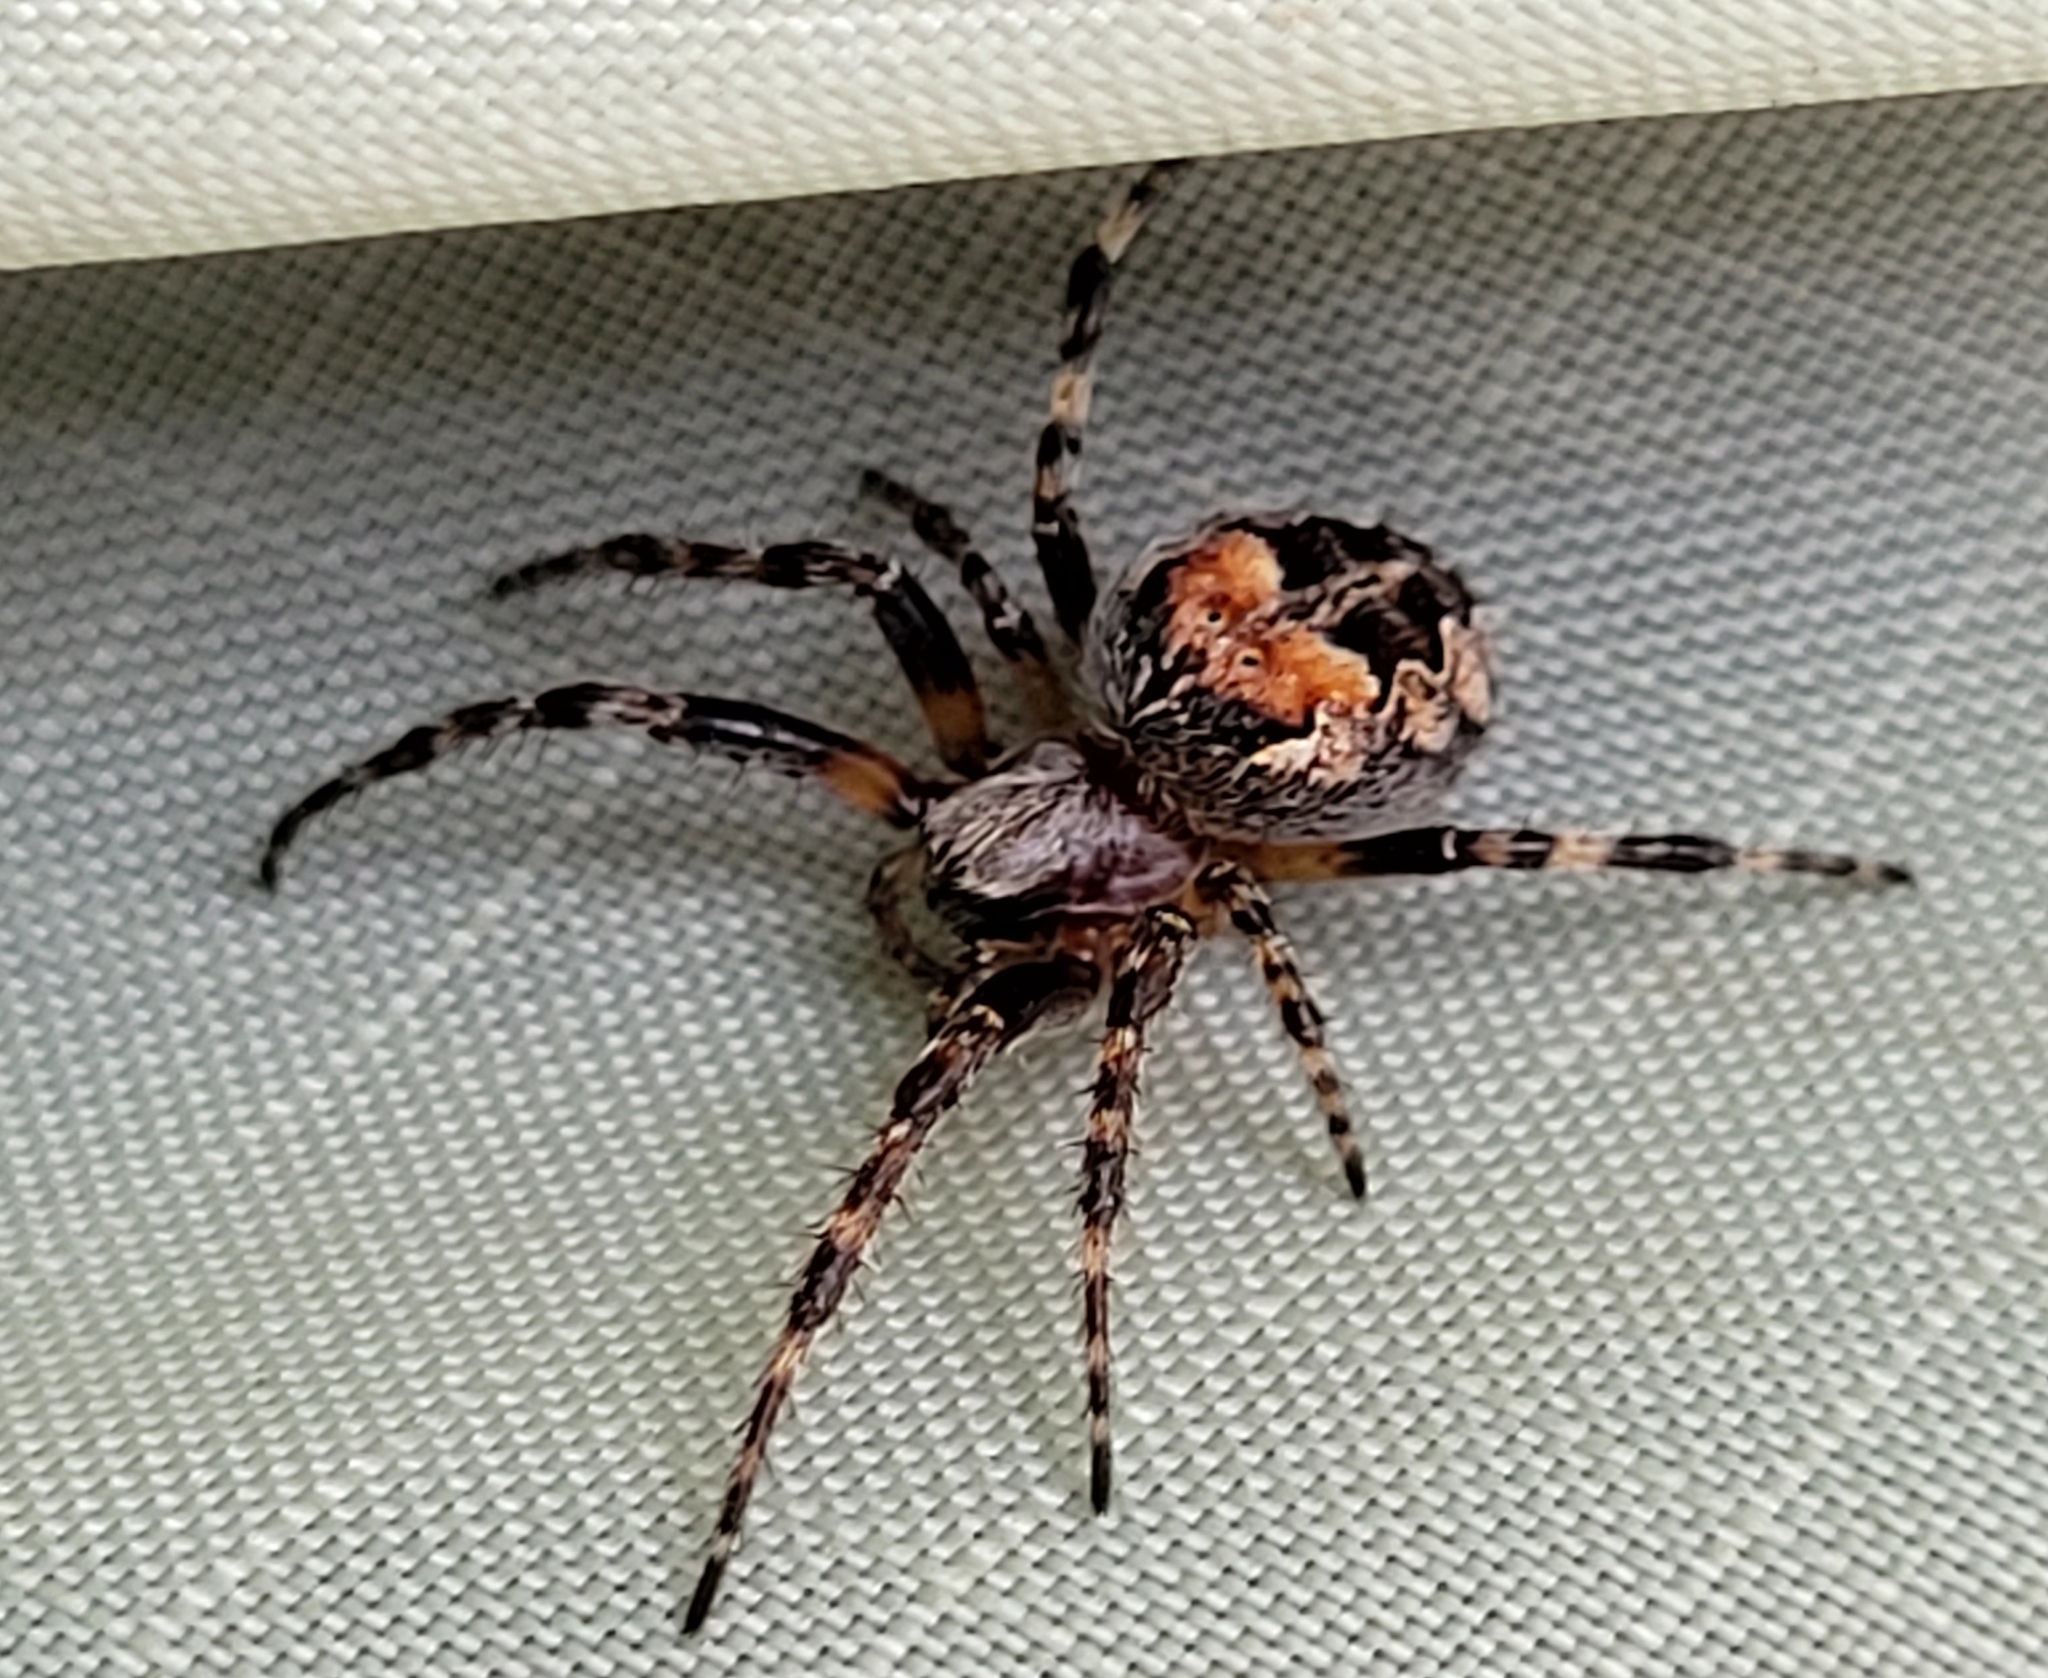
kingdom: Animalia
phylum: Arthropoda
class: Arachnida
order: Araneae
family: Araneidae
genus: Larinioides
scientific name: Larinioides patagiatus
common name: Ornamental orbweaver
